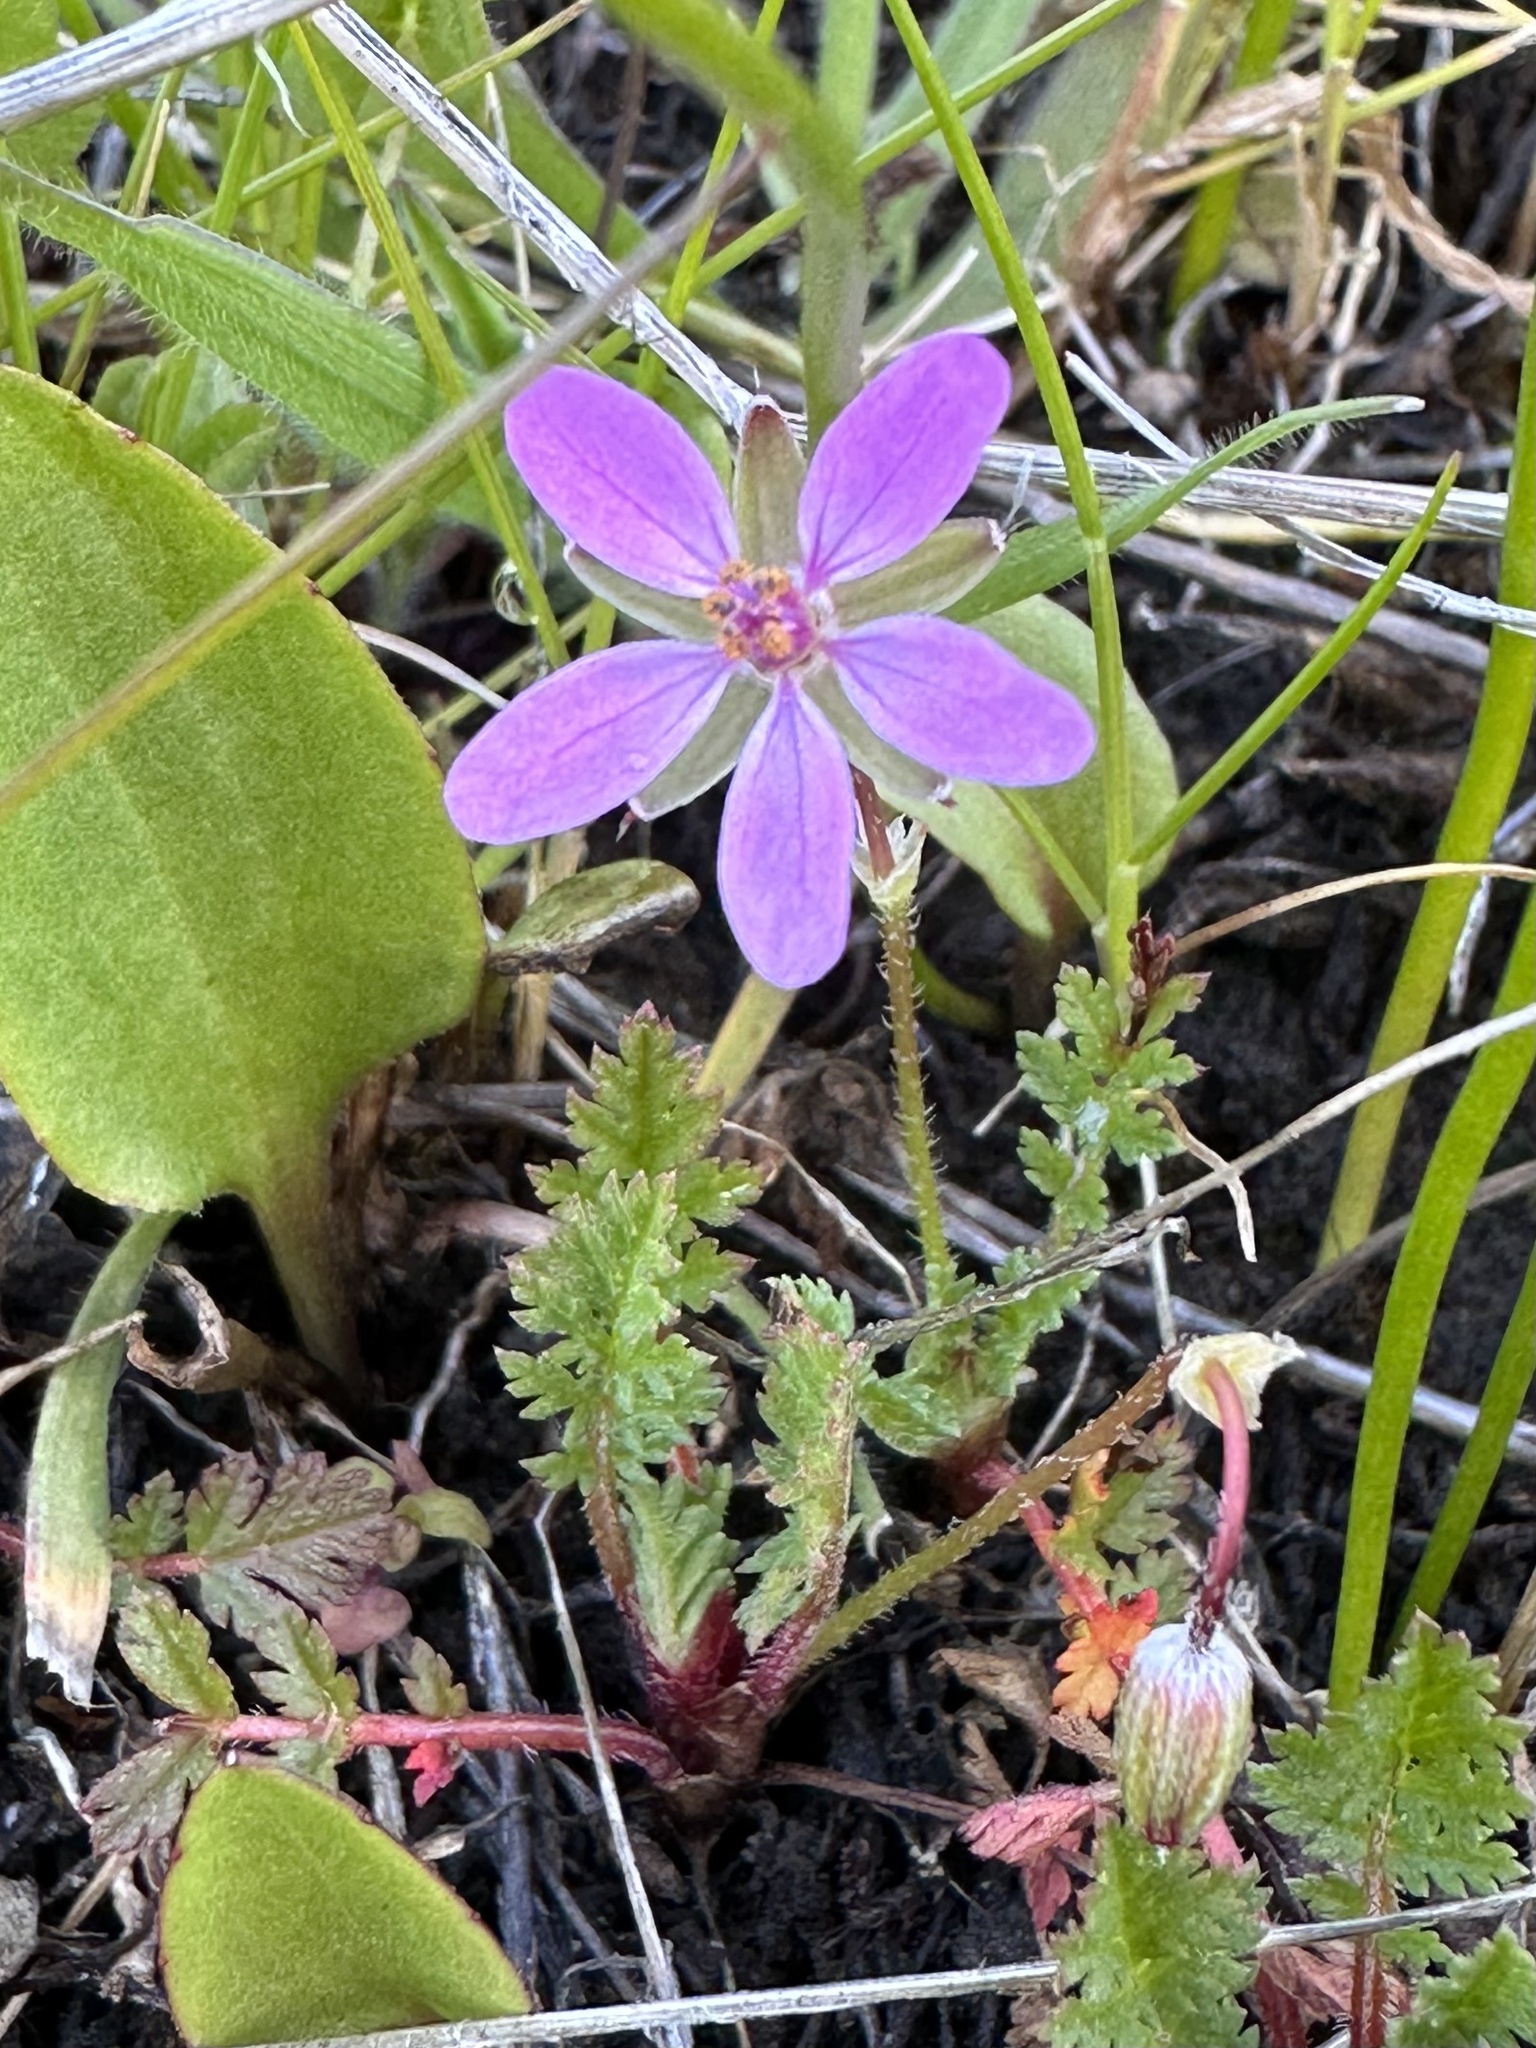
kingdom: Plantae
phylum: Tracheophyta
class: Magnoliopsida
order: Geraniales
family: Geraniaceae
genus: Erodium
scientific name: Erodium cicutarium
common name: Common stork's-bill
